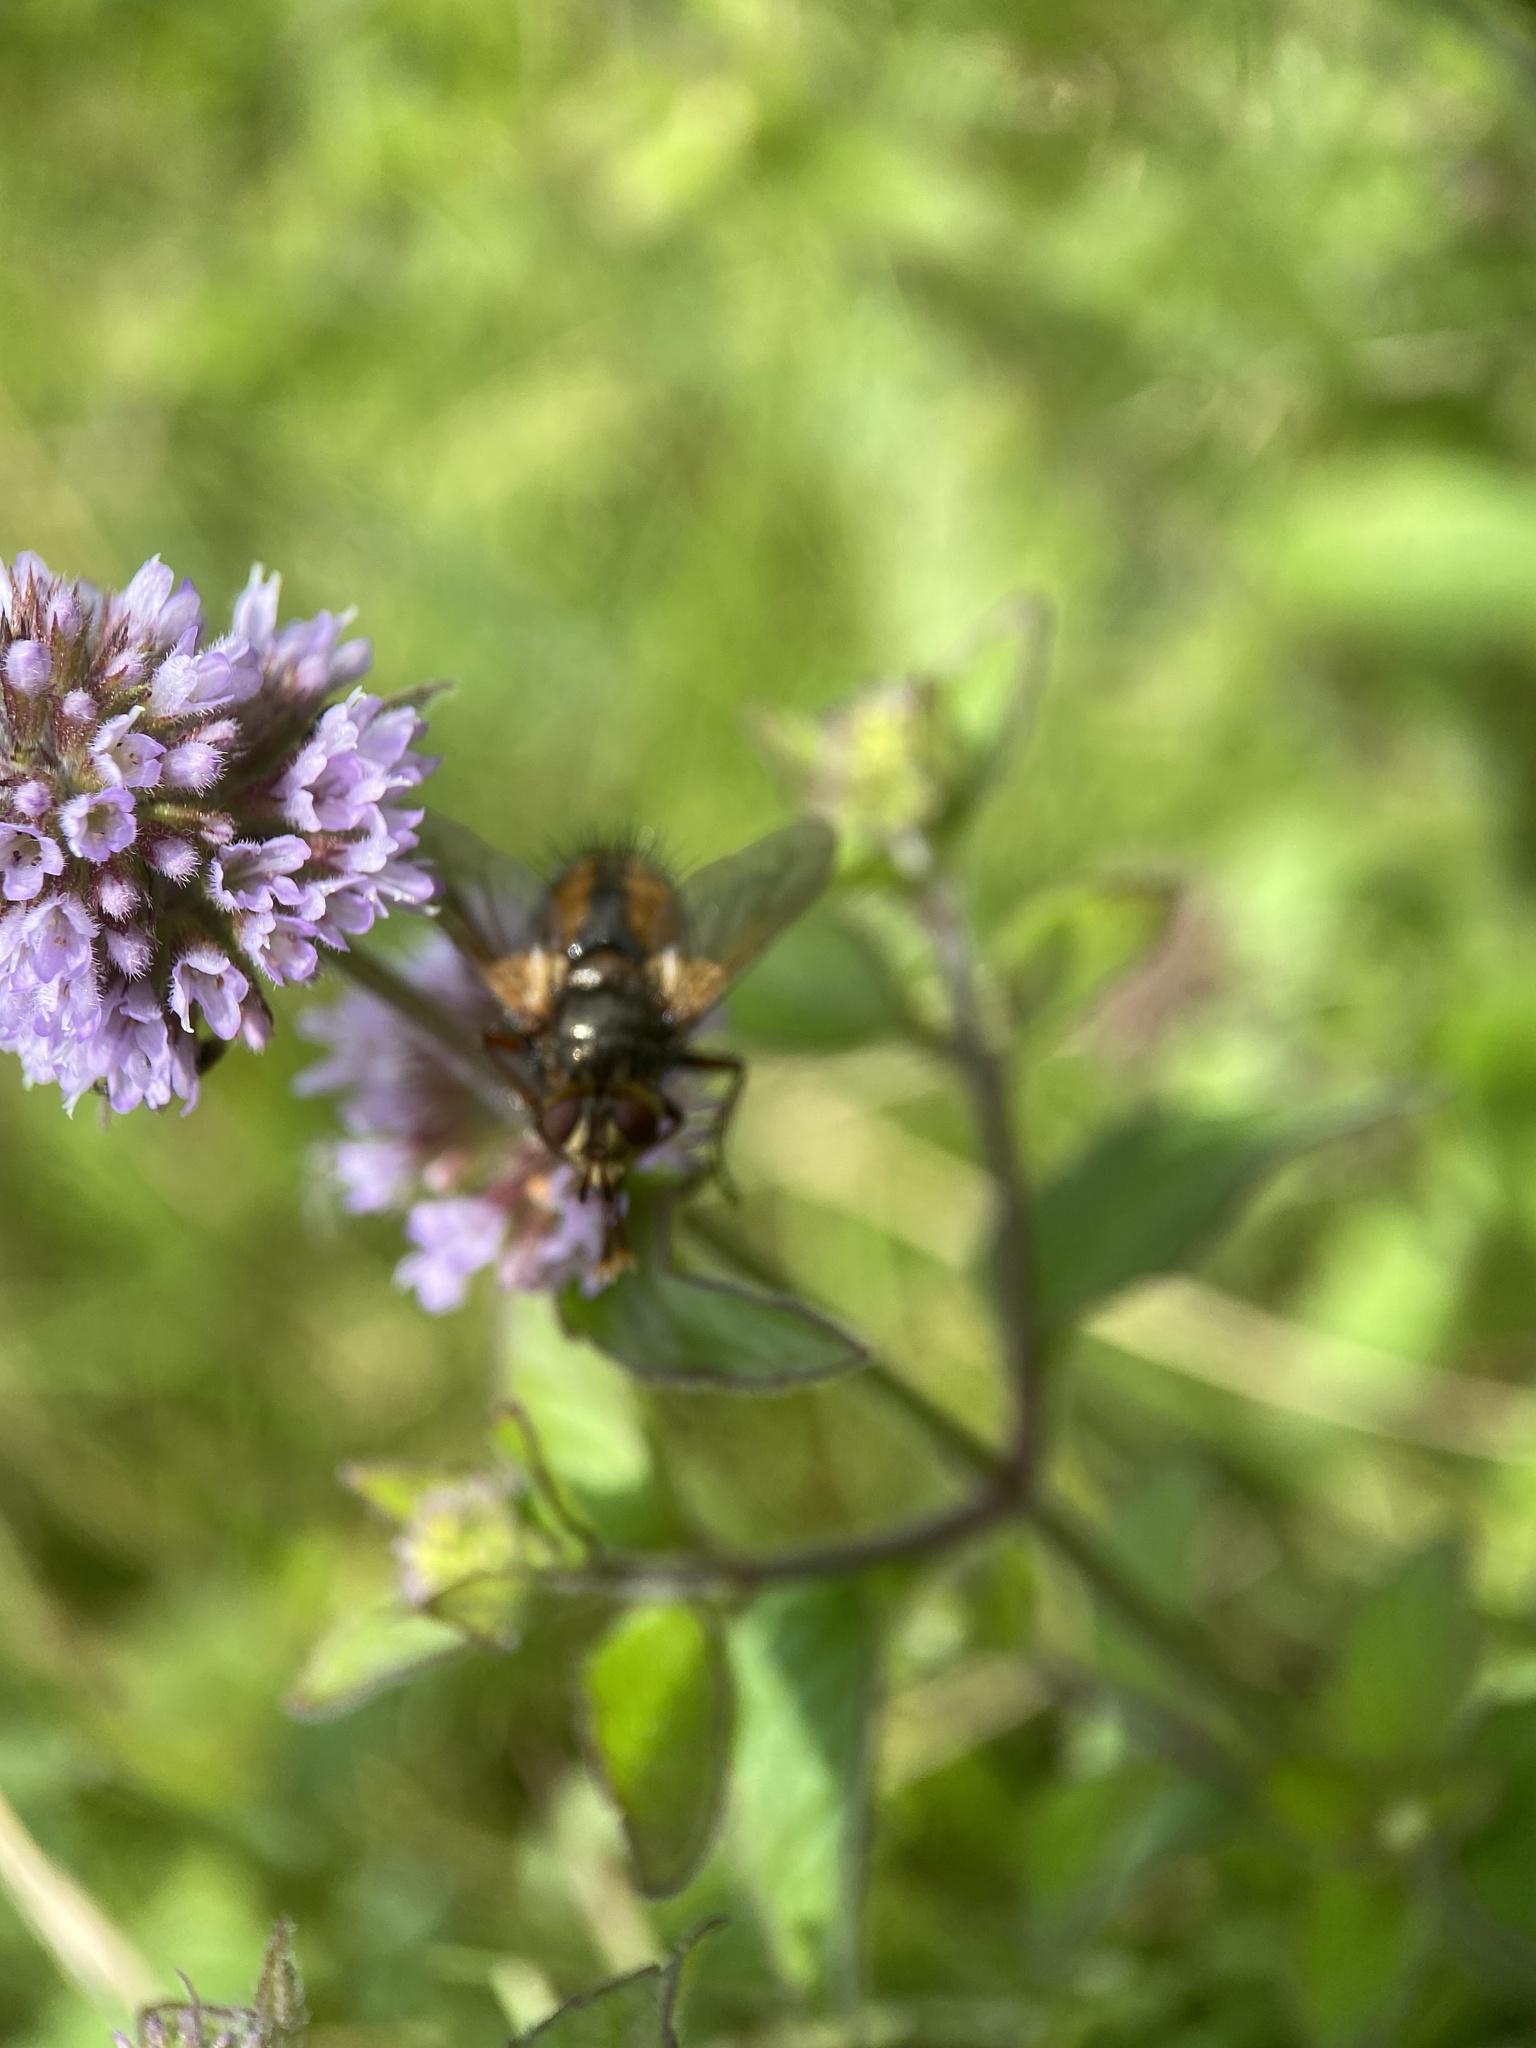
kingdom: Animalia
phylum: Arthropoda
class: Insecta
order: Diptera
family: Tachinidae
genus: Tachina
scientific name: Tachina fera
